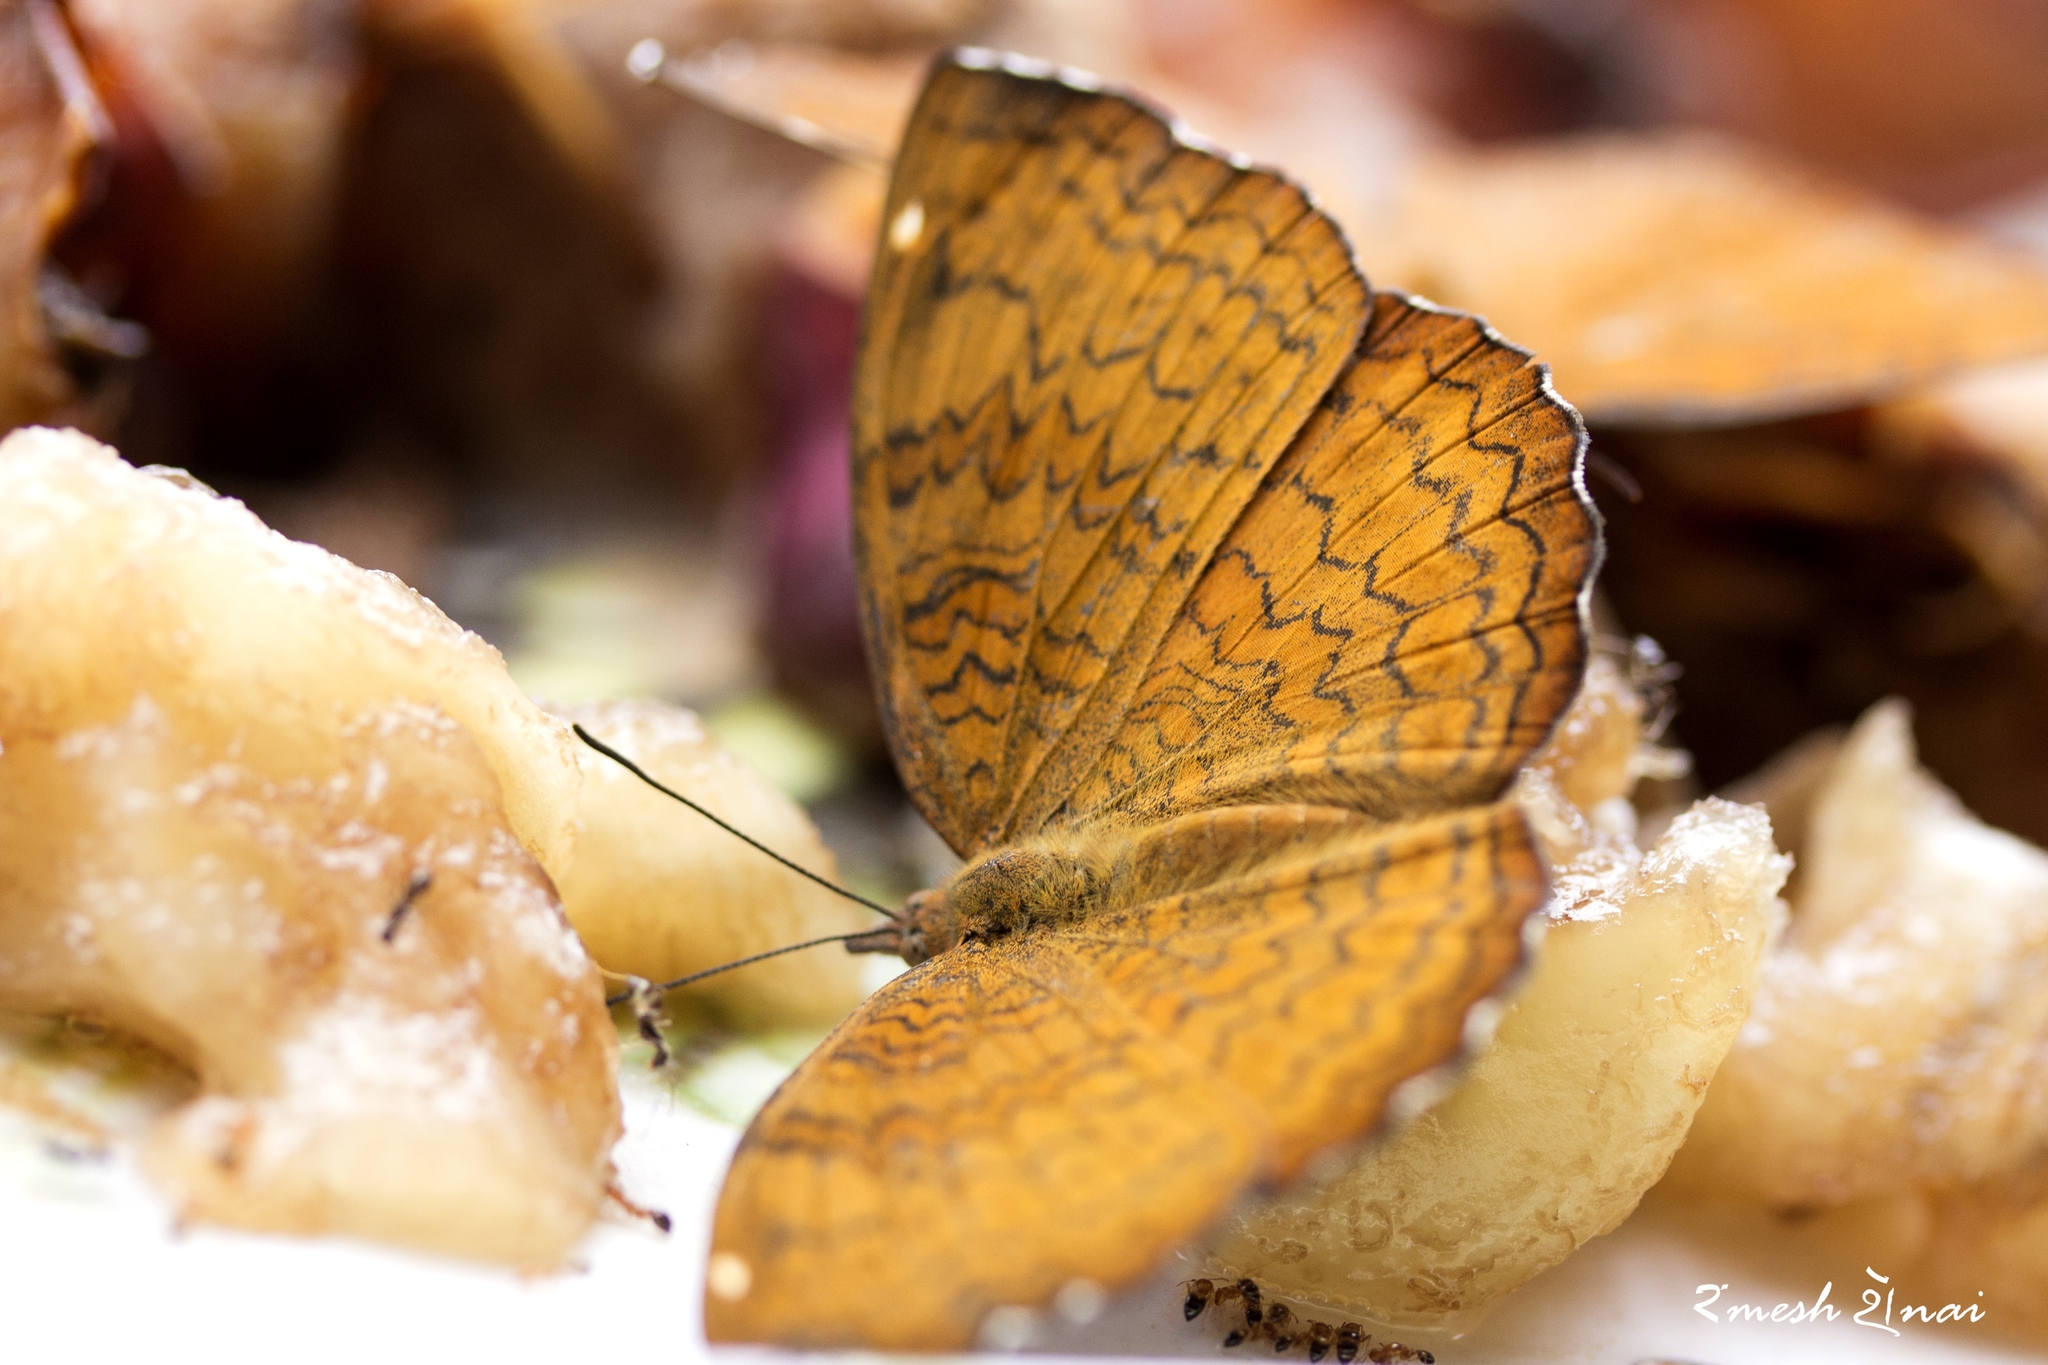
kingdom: Animalia
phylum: Arthropoda
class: Insecta
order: Lepidoptera
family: Nymphalidae
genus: Ariadne
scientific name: Ariadne merione
